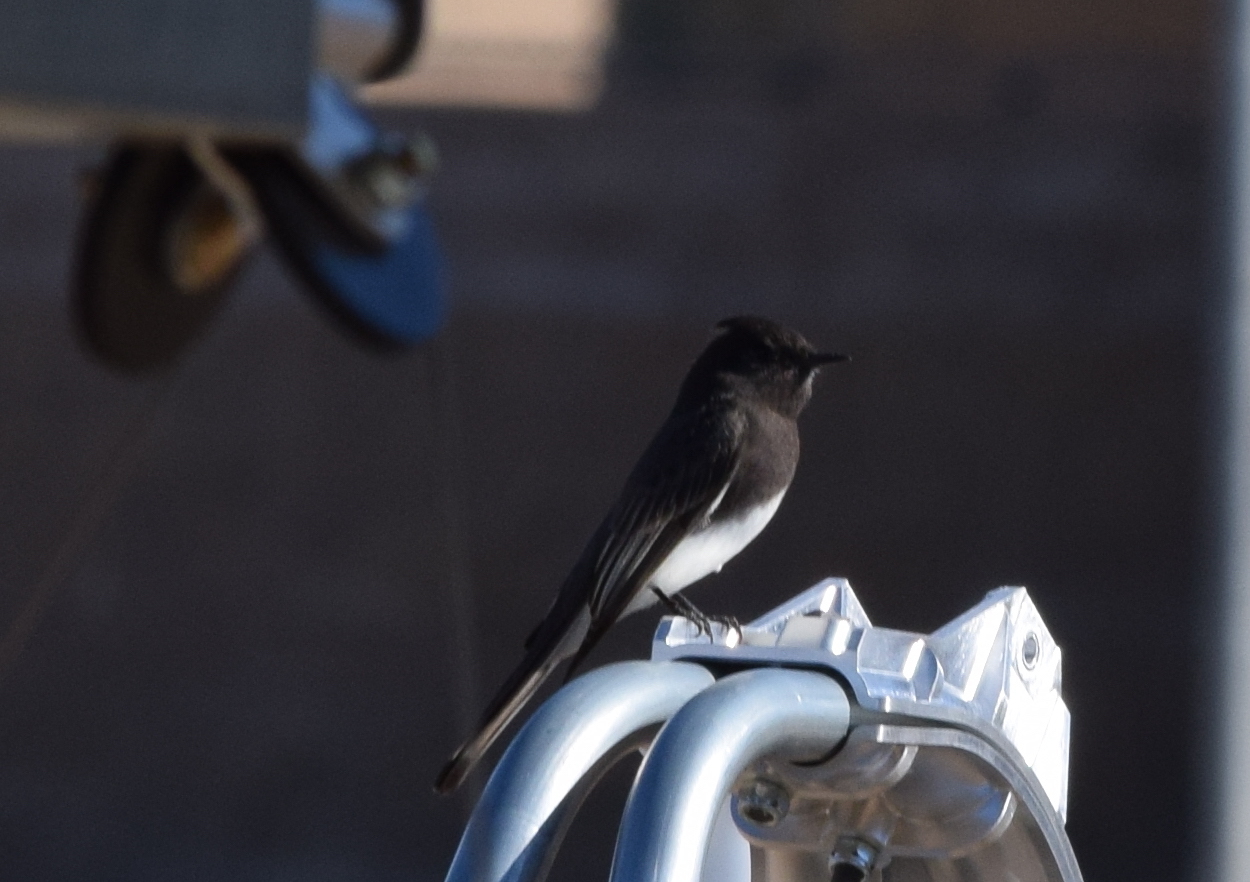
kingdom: Animalia
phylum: Chordata
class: Aves
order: Passeriformes
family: Tyrannidae
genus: Sayornis
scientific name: Sayornis nigricans
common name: Black phoebe
